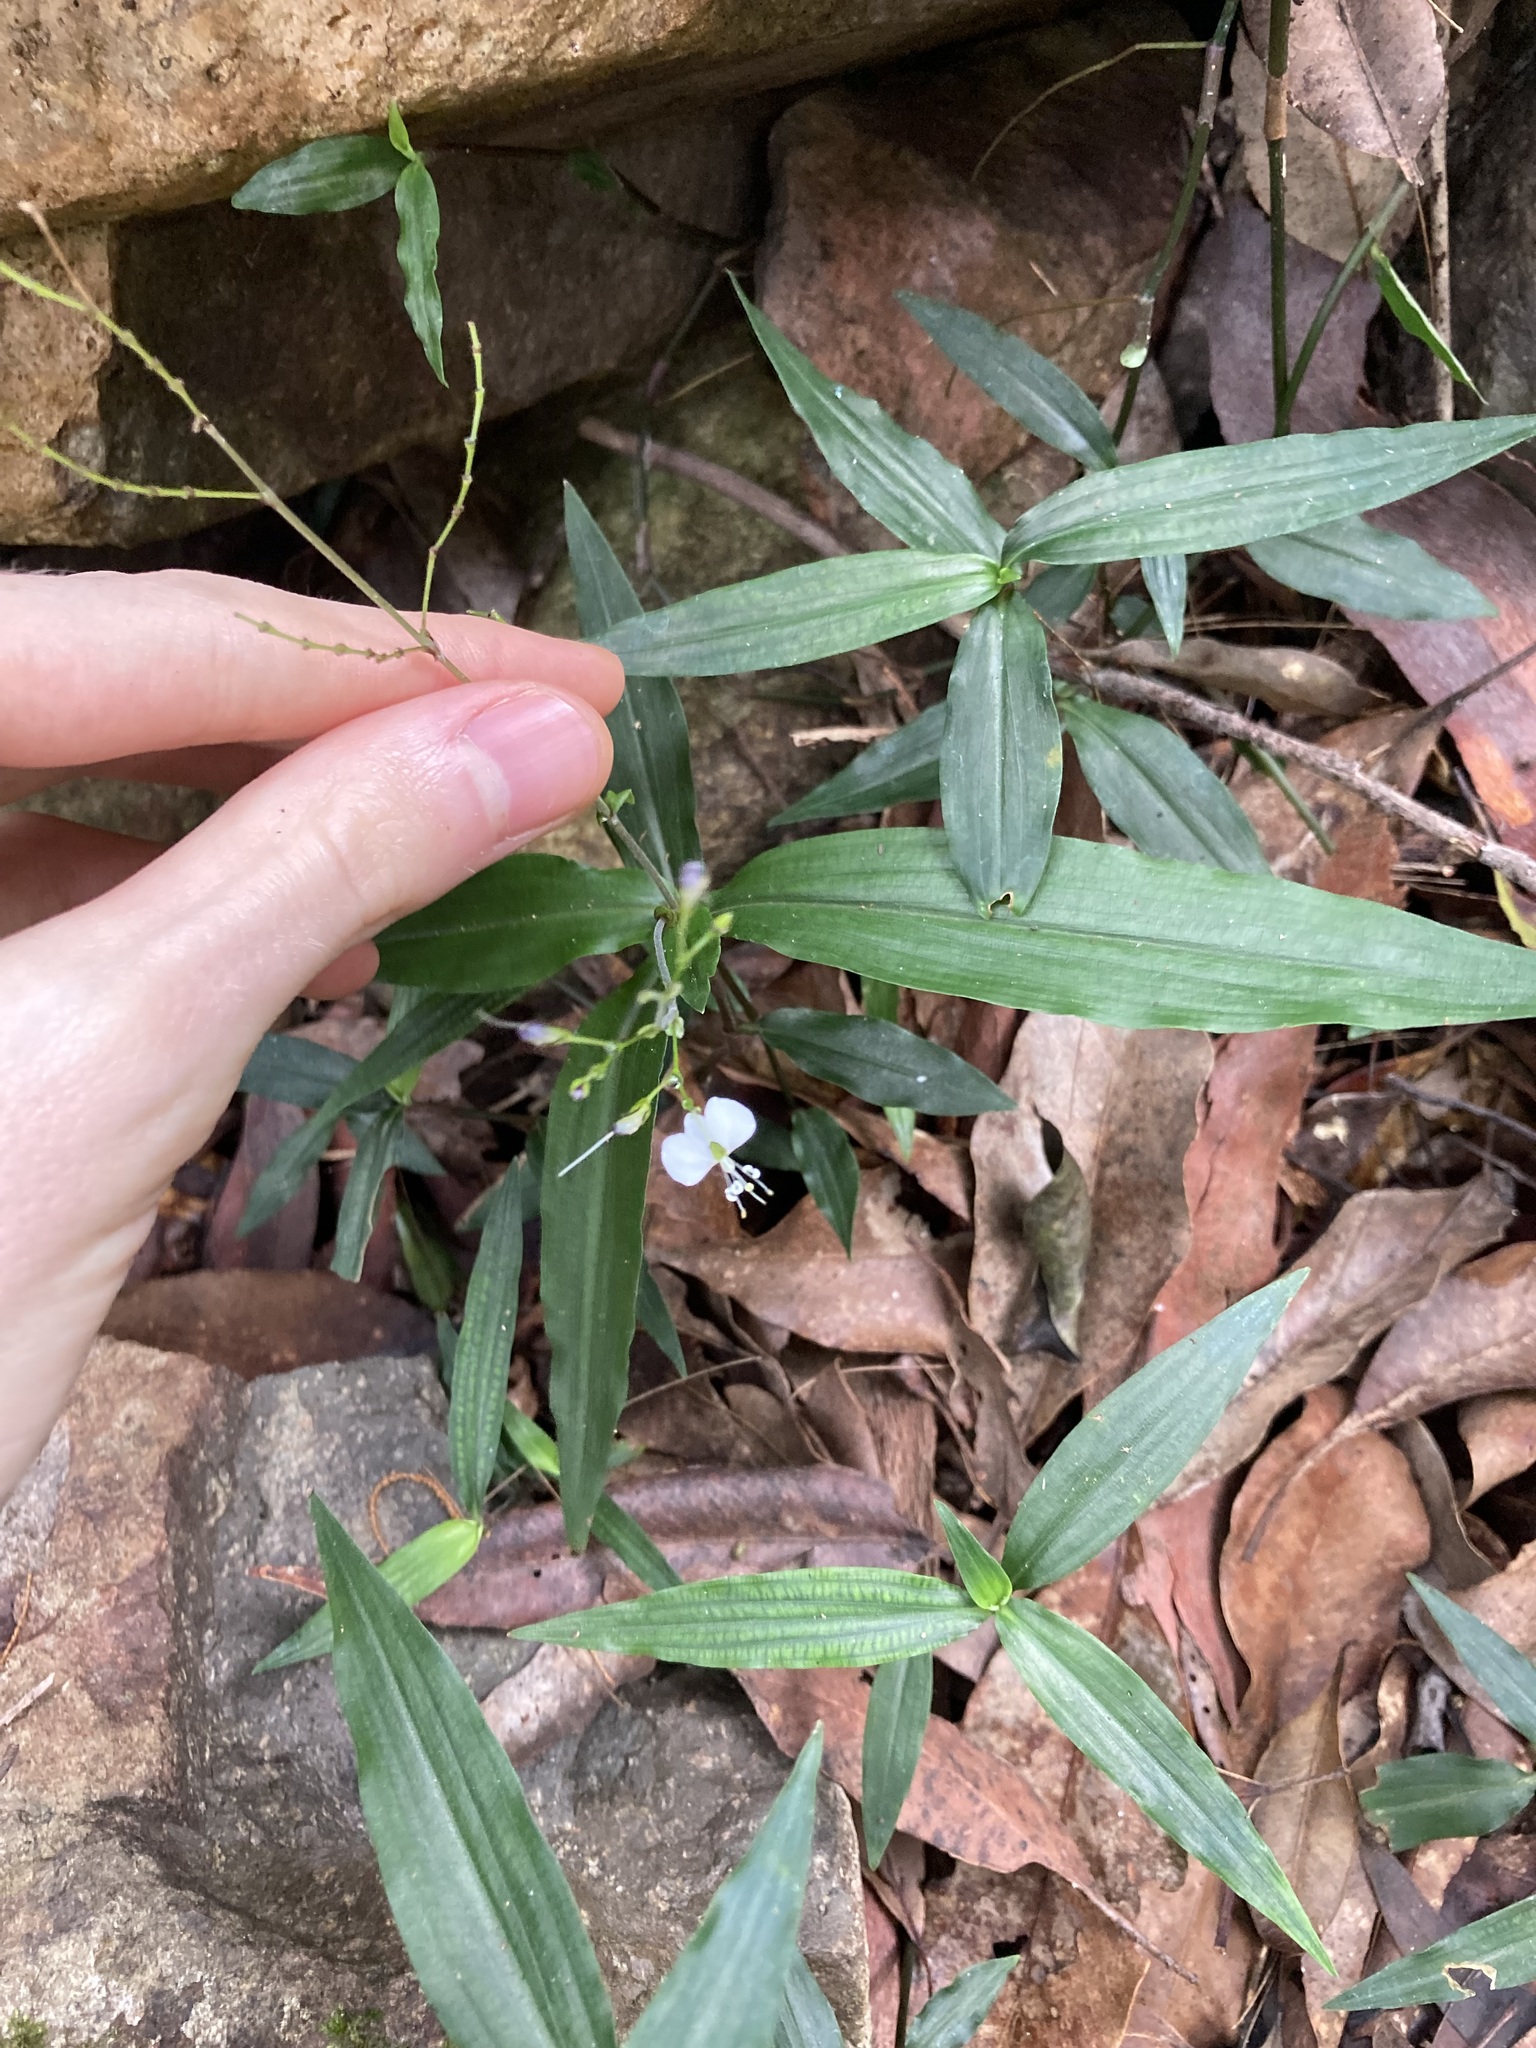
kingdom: Plantae
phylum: Tracheophyta
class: Liliopsida
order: Commelinales
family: Commelinaceae
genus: Aneilema
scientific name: Aneilema acuminatum
